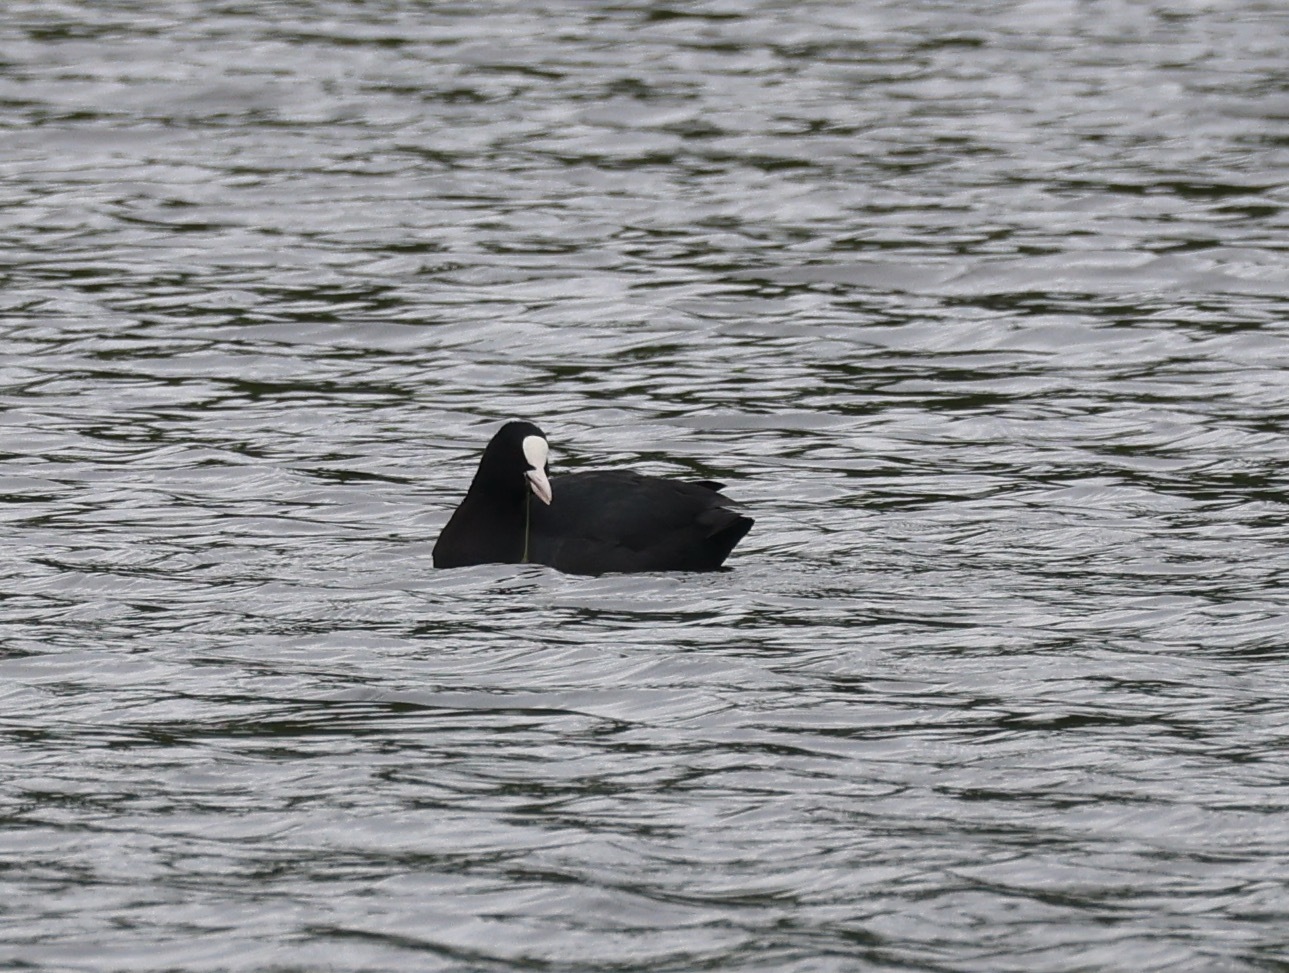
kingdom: Animalia
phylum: Chordata
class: Aves
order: Gruiformes
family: Rallidae
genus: Fulica
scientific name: Fulica atra
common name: Eurasian coot
